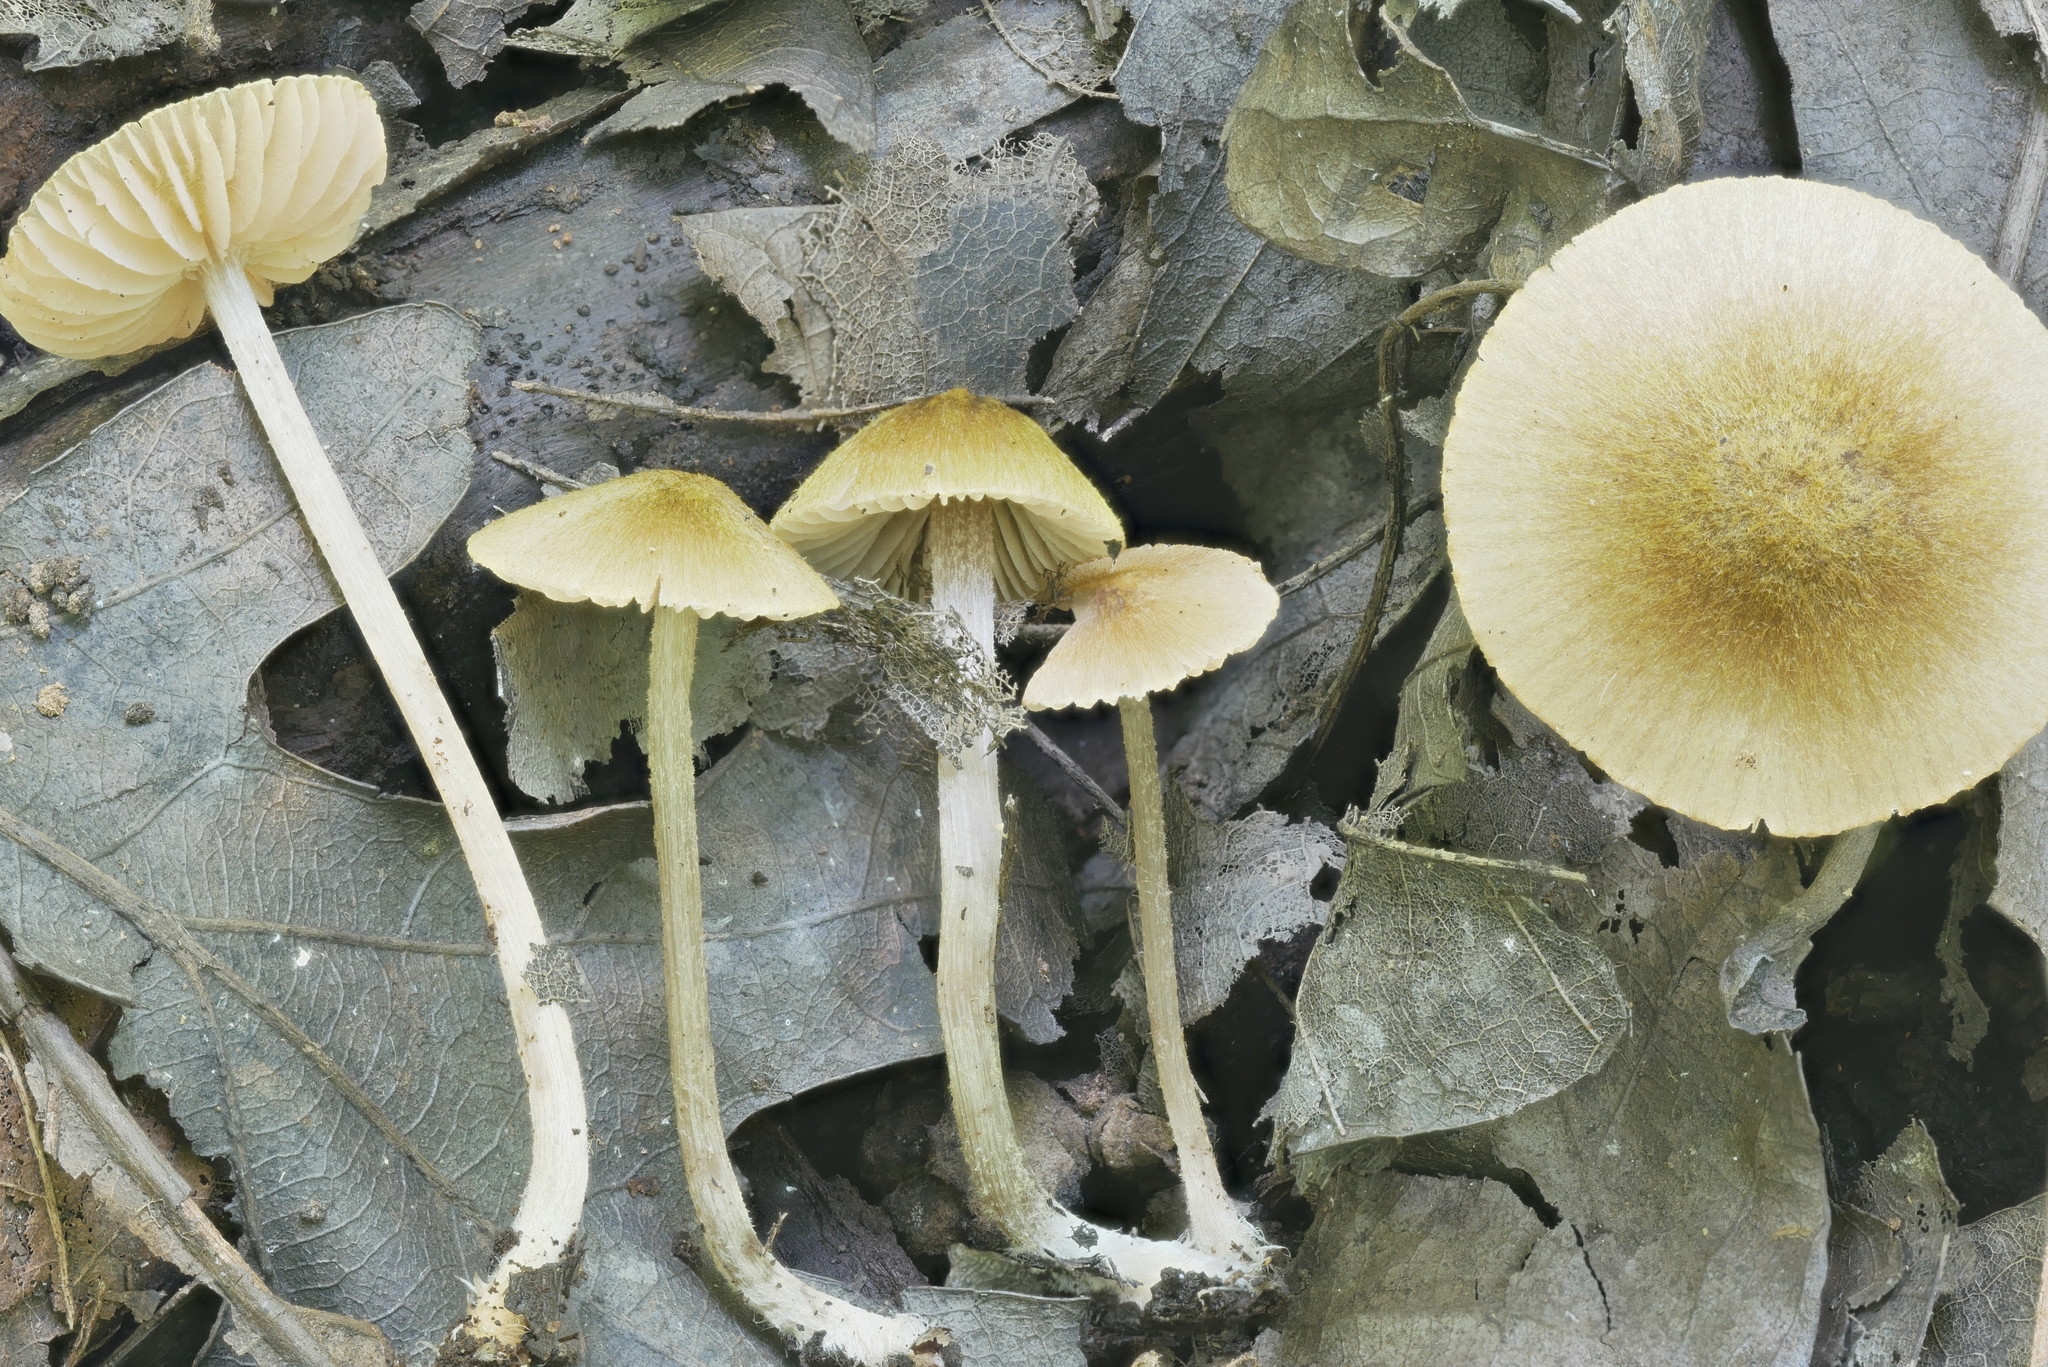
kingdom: Fungi
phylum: Basidiomycota
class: Agaricomycetes
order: Agaricales
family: Entolomataceae
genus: Entoloma
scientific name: Entoloma flavoviride
